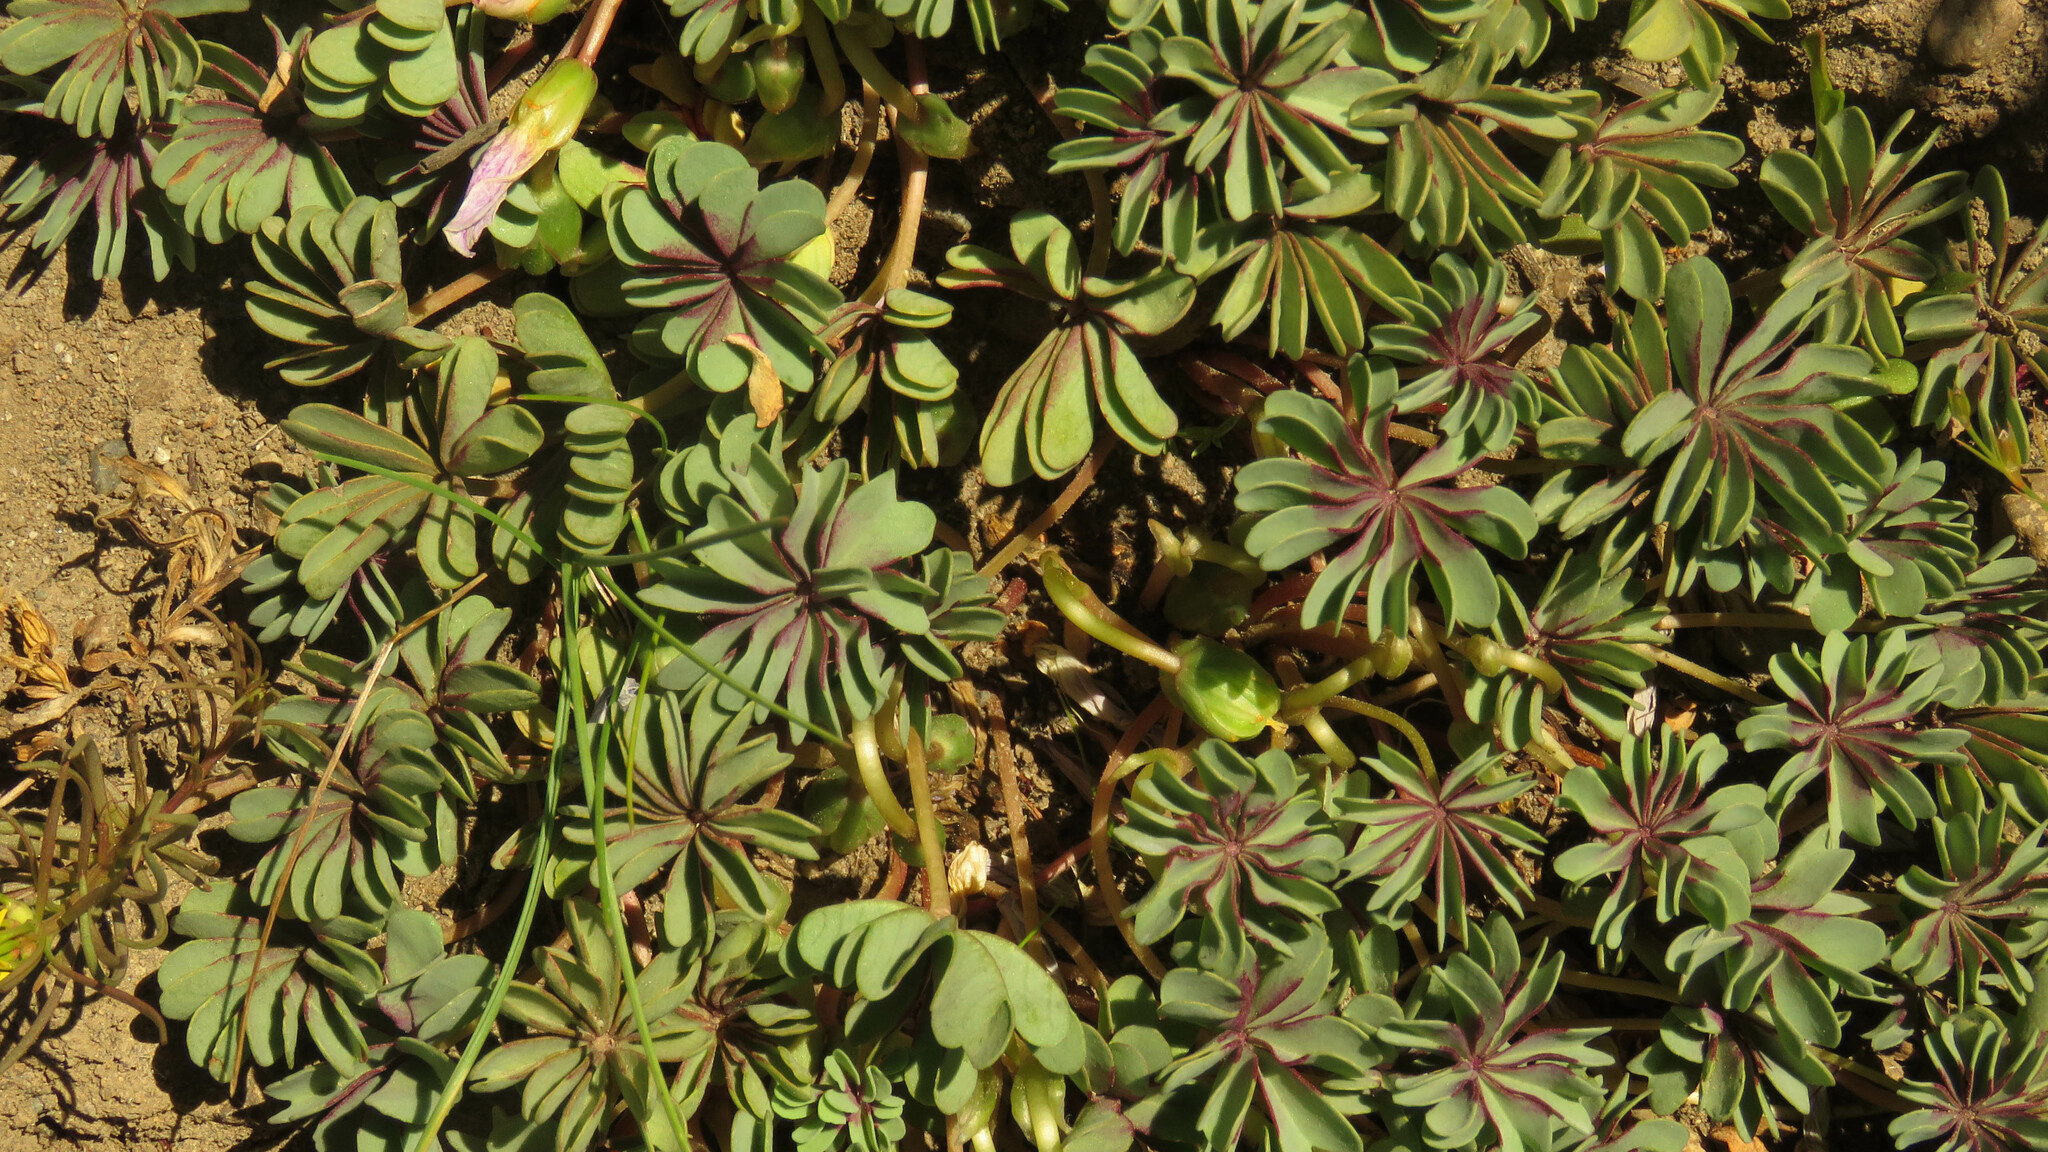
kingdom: Plantae
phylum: Tracheophyta
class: Magnoliopsida
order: Oxalidales
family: Oxalidaceae
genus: Oxalis
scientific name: Oxalis adenophylla
